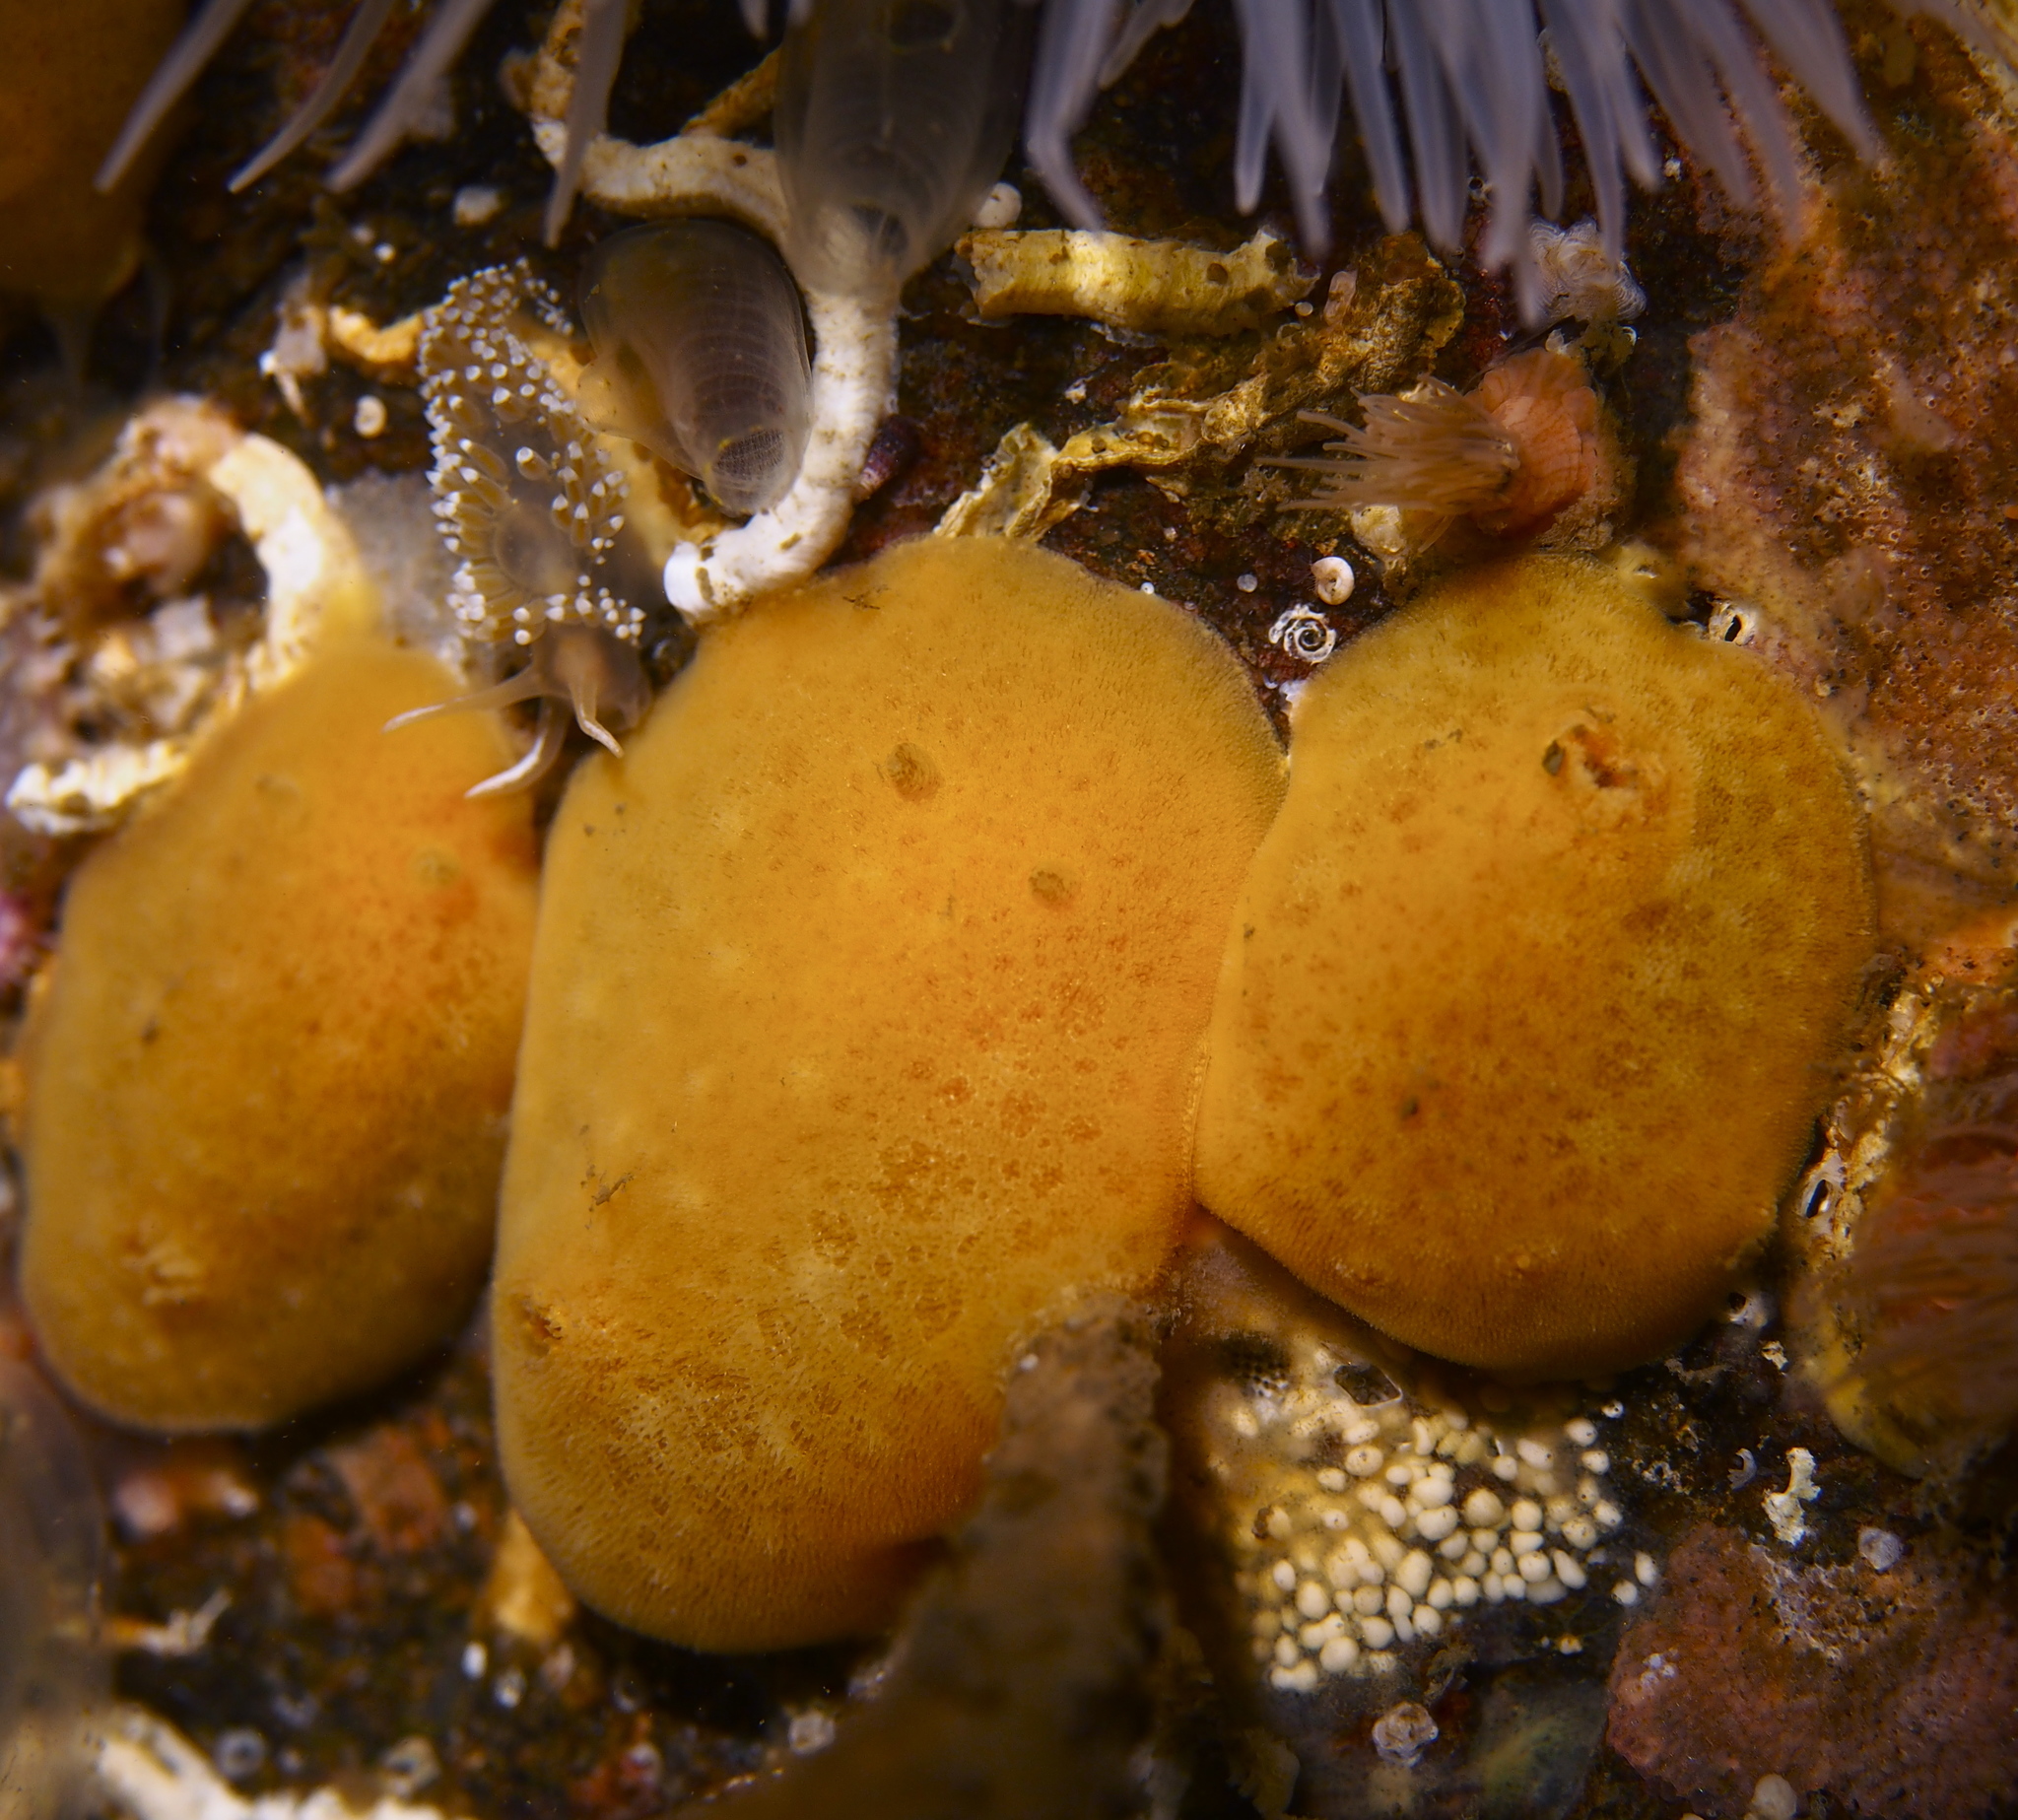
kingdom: Animalia
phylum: Mollusca
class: Gastropoda
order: Nudibranchia
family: Discodorididae
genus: Jorunna
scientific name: Jorunna tomentosa
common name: Grey sea slug
